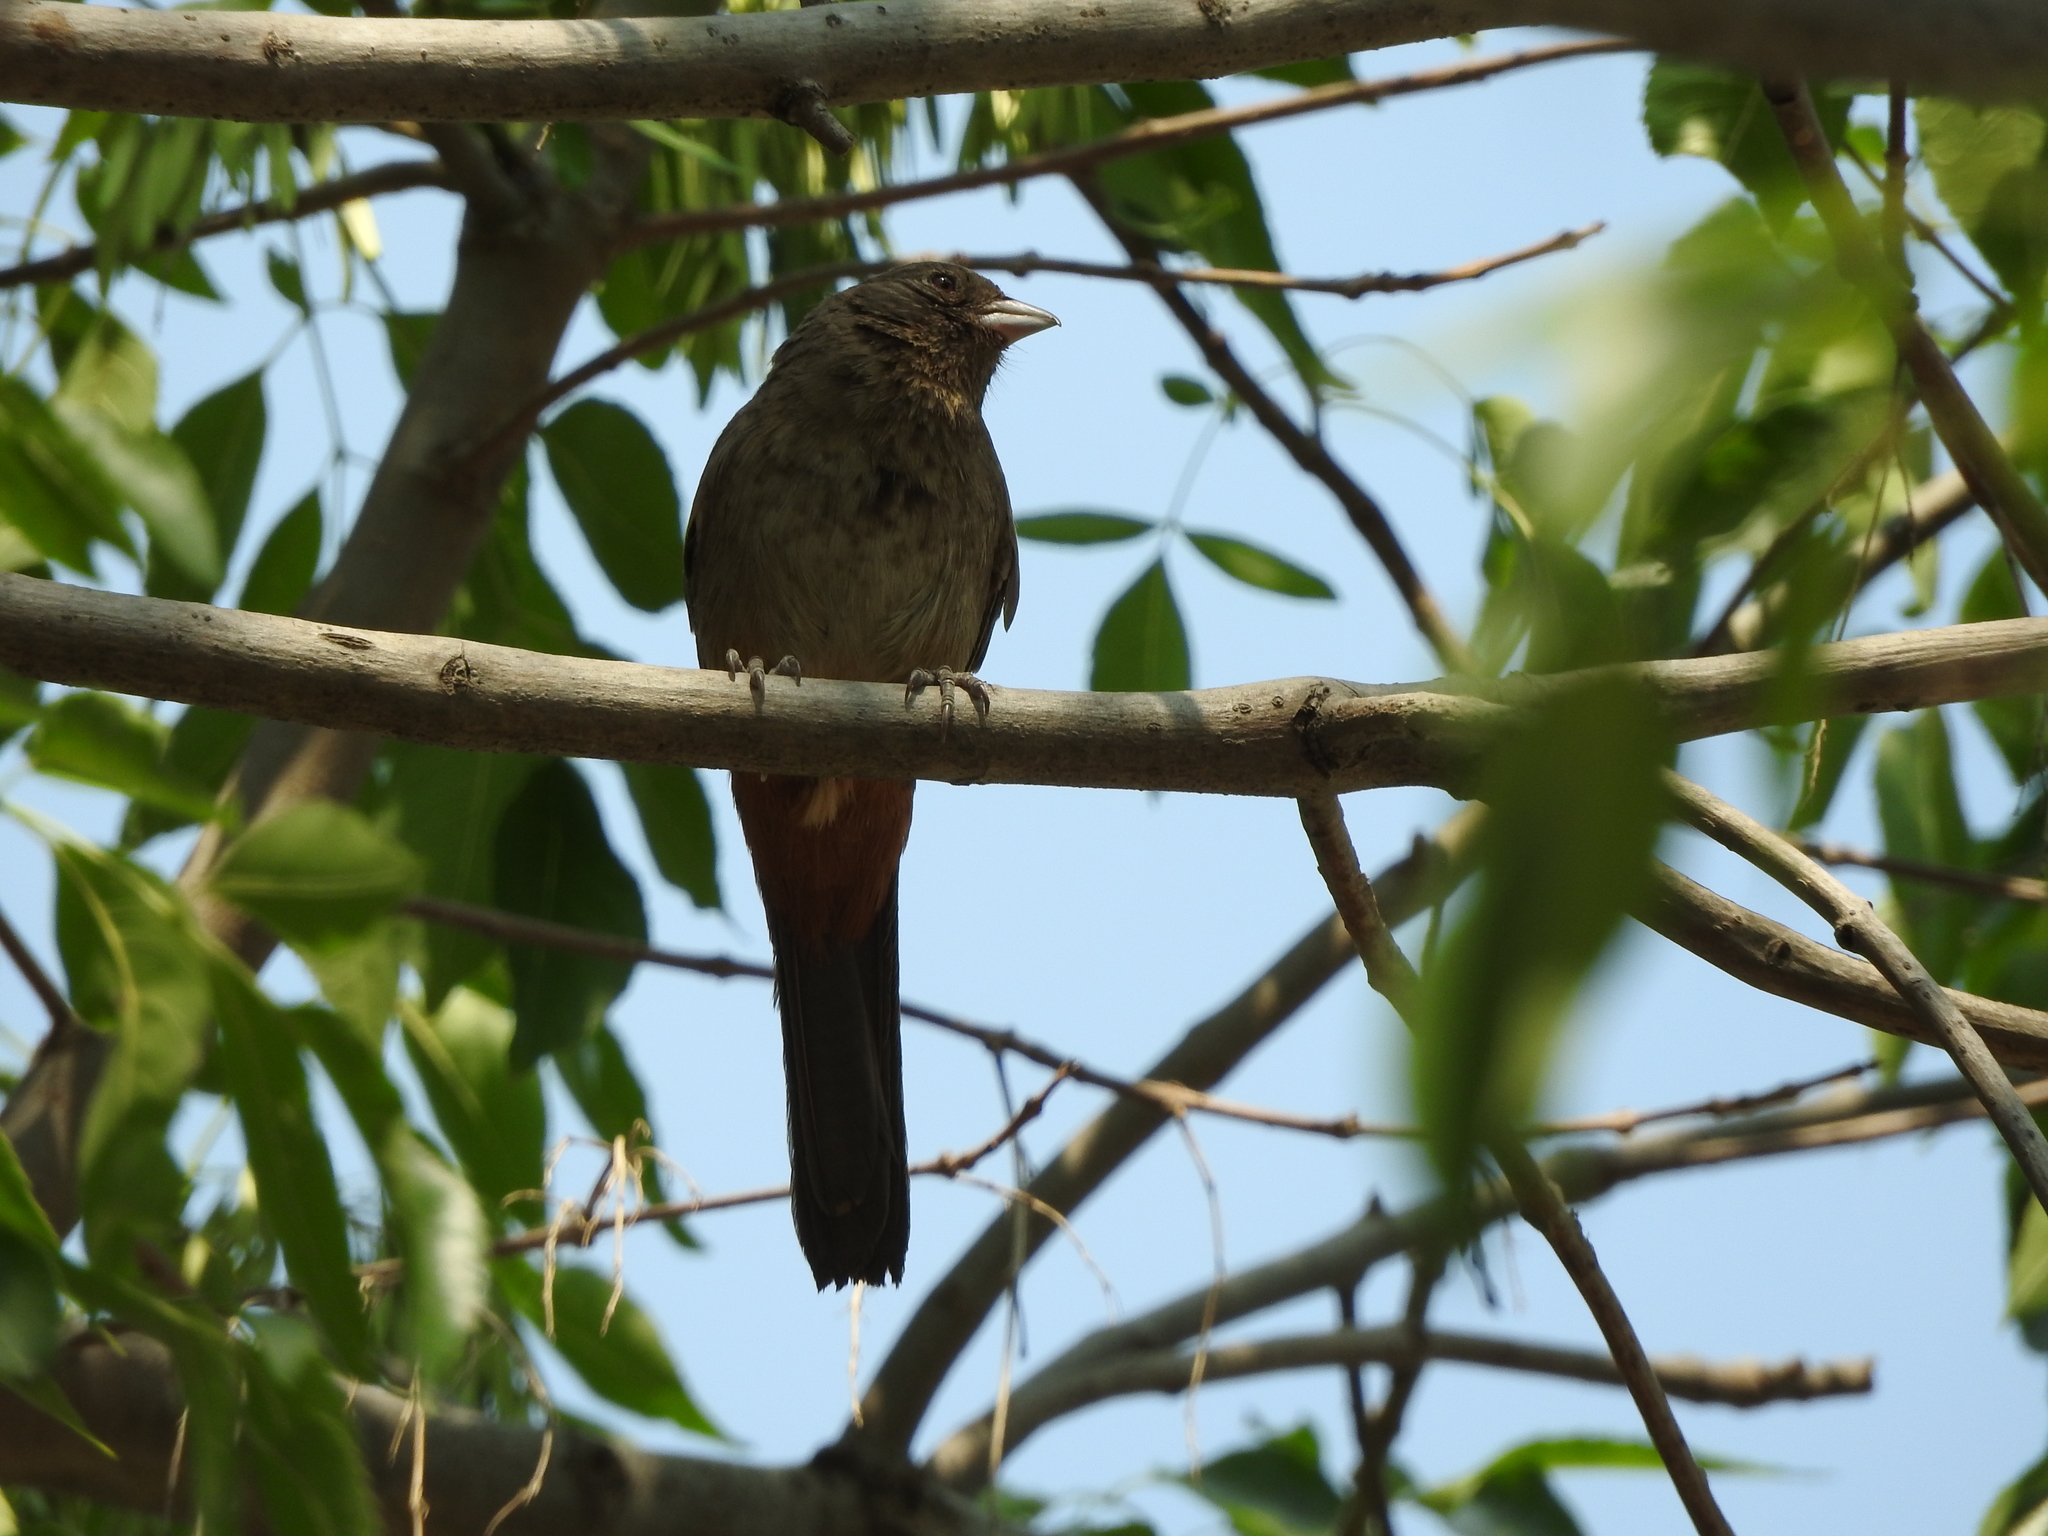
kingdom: Animalia
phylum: Chordata
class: Aves
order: Passeriformes
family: Passerellidae
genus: Melozone
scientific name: Melozone fusca
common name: Canyon towhee
